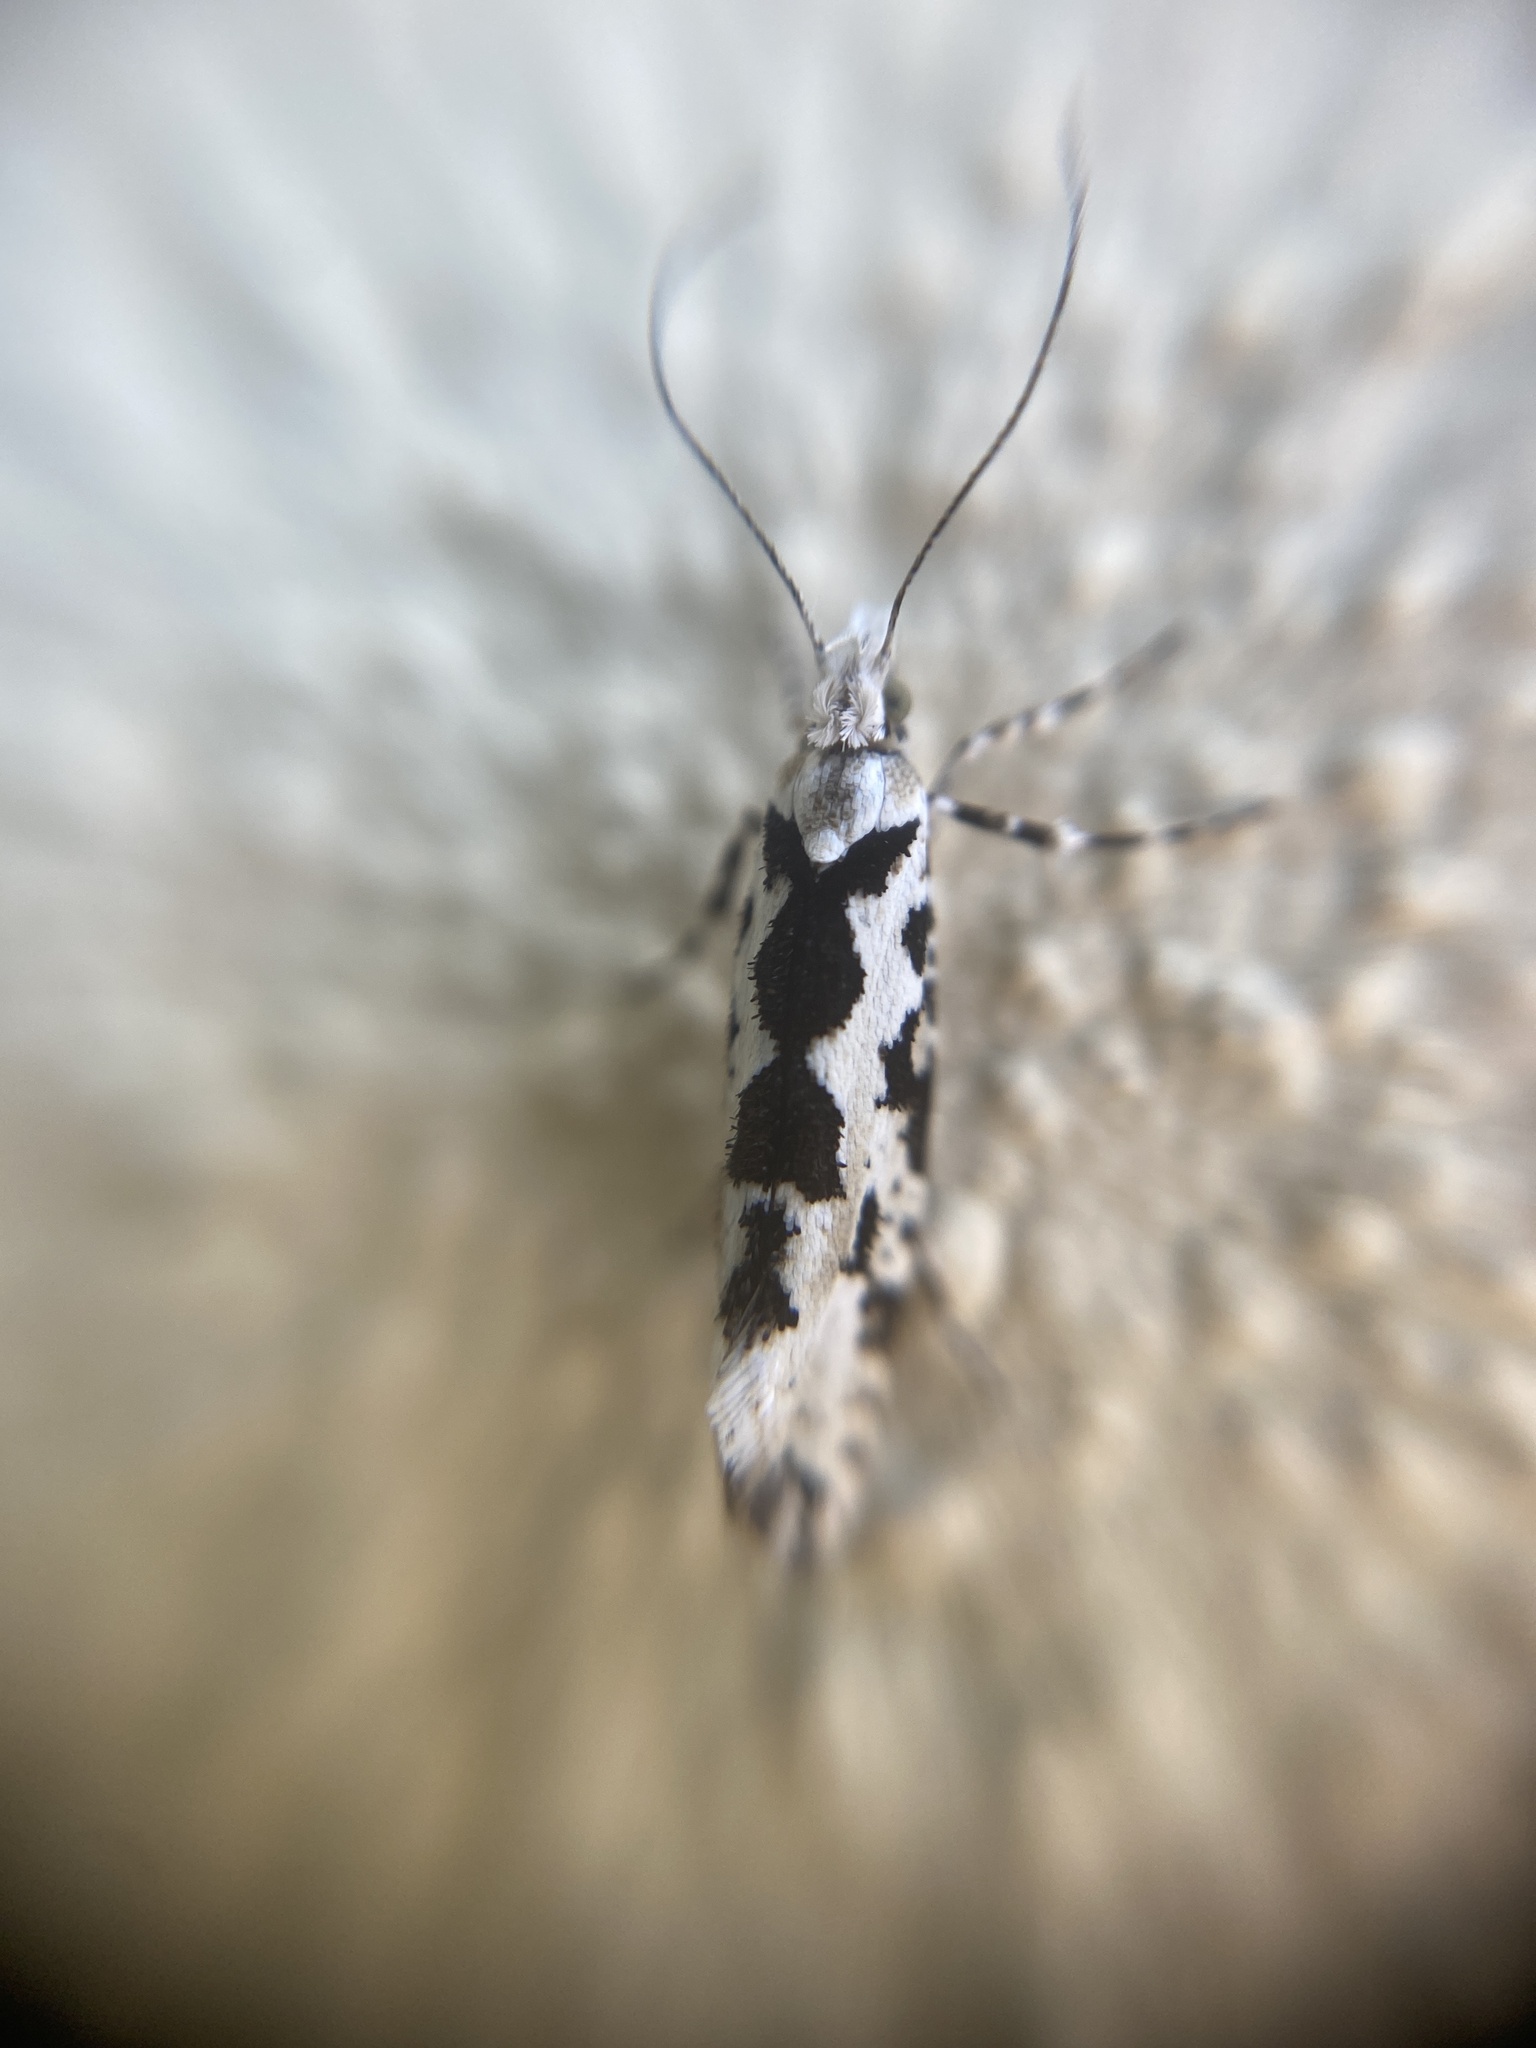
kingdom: Animalia
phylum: Arthropoda
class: Insecta
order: Lepidoptera
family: Plutellidae
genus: Ypsolophus
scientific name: Ypsolophus sequella
